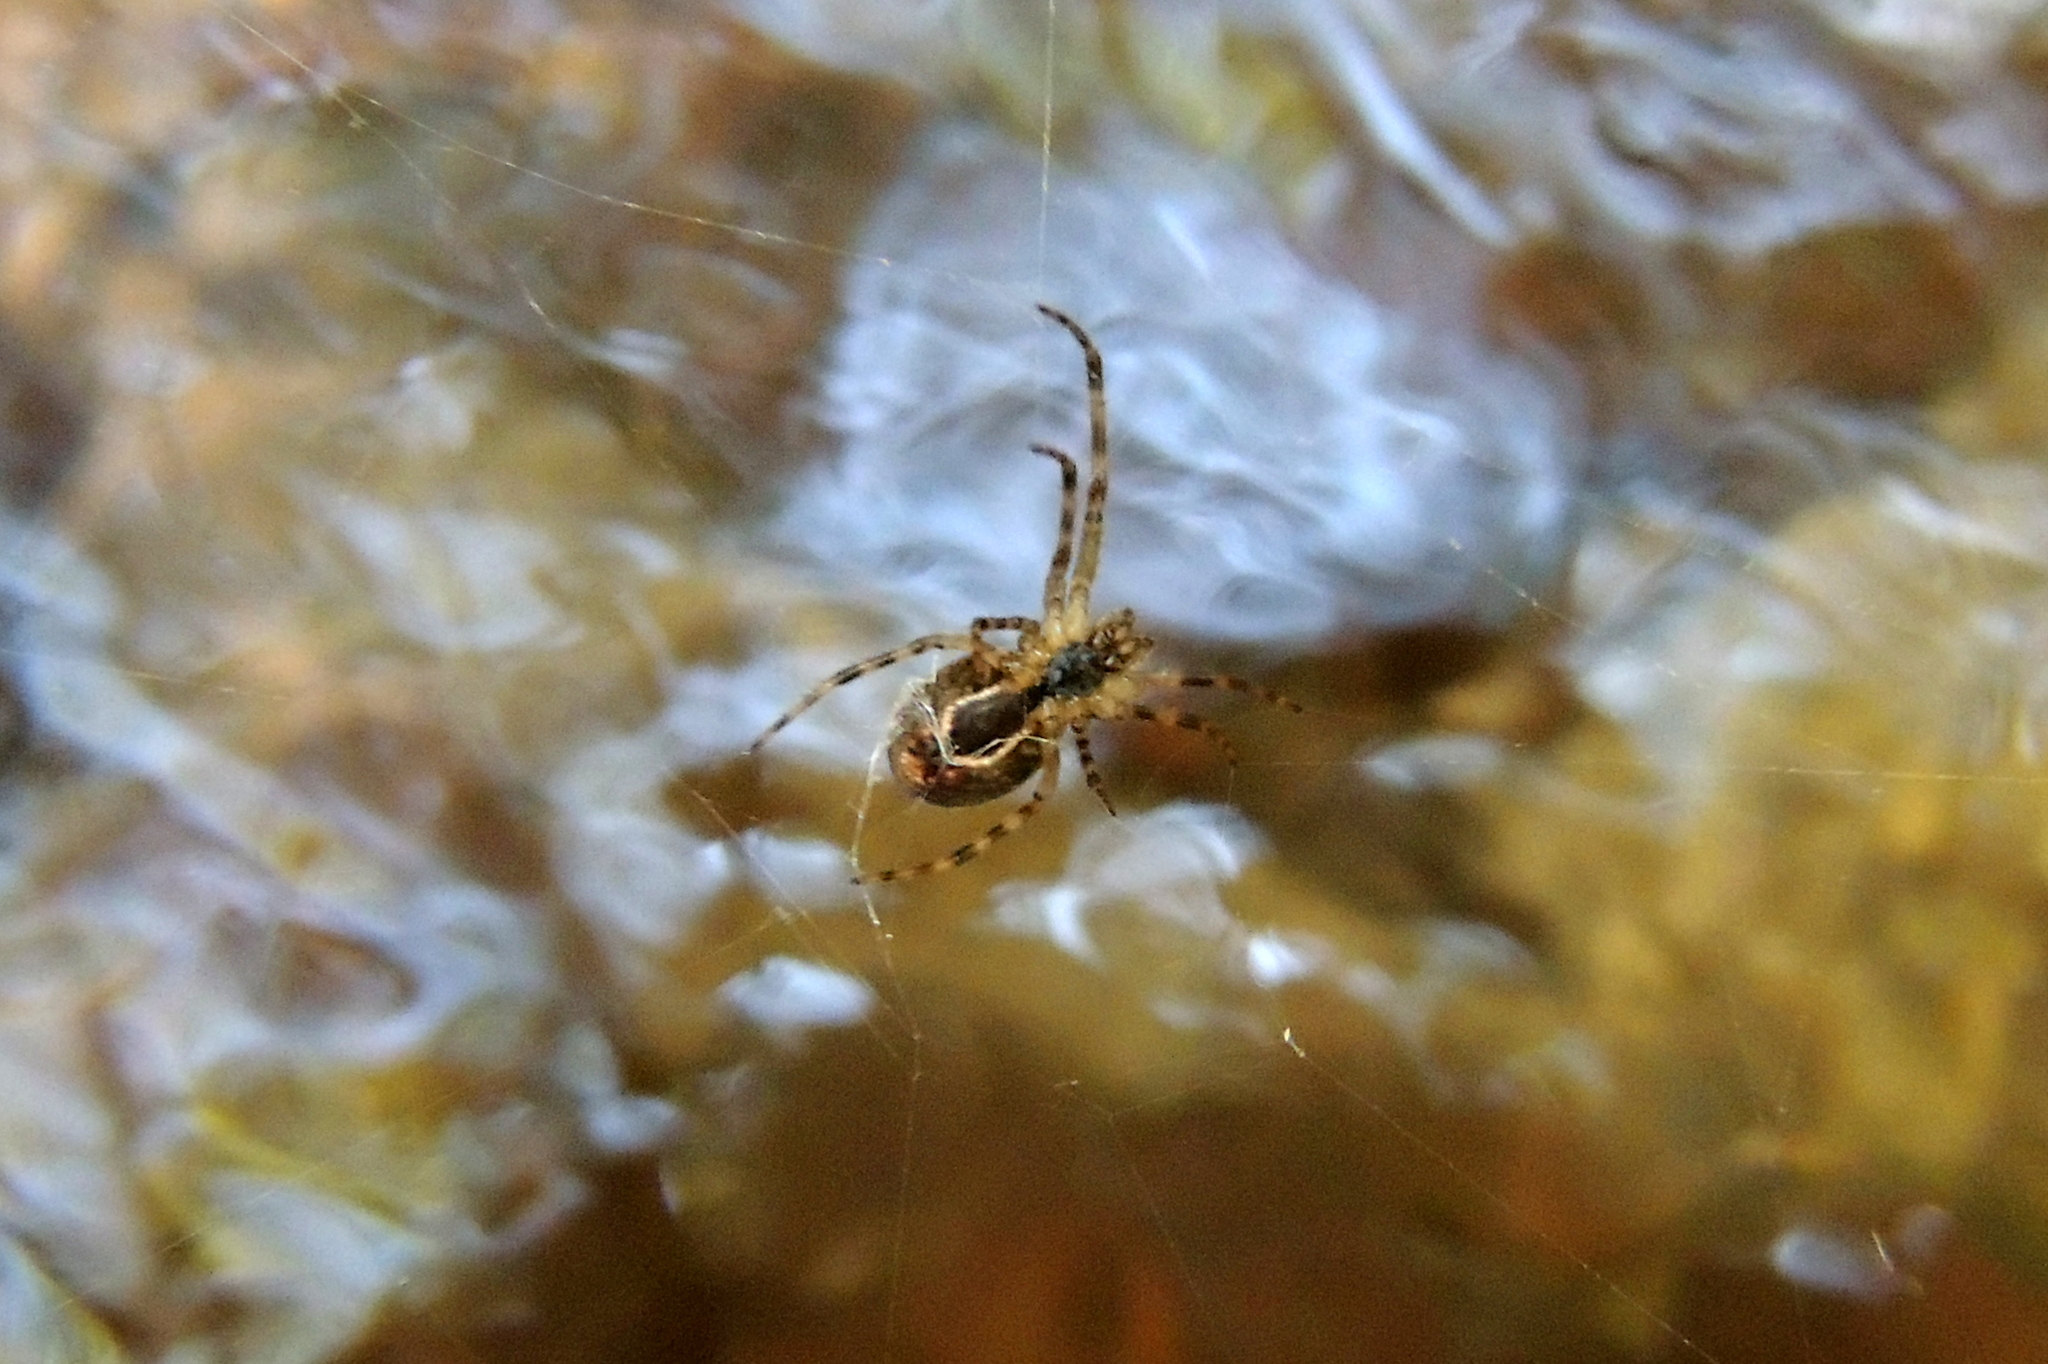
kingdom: Animalia
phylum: Arthropoda
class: Arachnida
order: Araneae
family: Tetragnathidae
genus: Metleucauge
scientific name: Metleucauge dentipalpis
